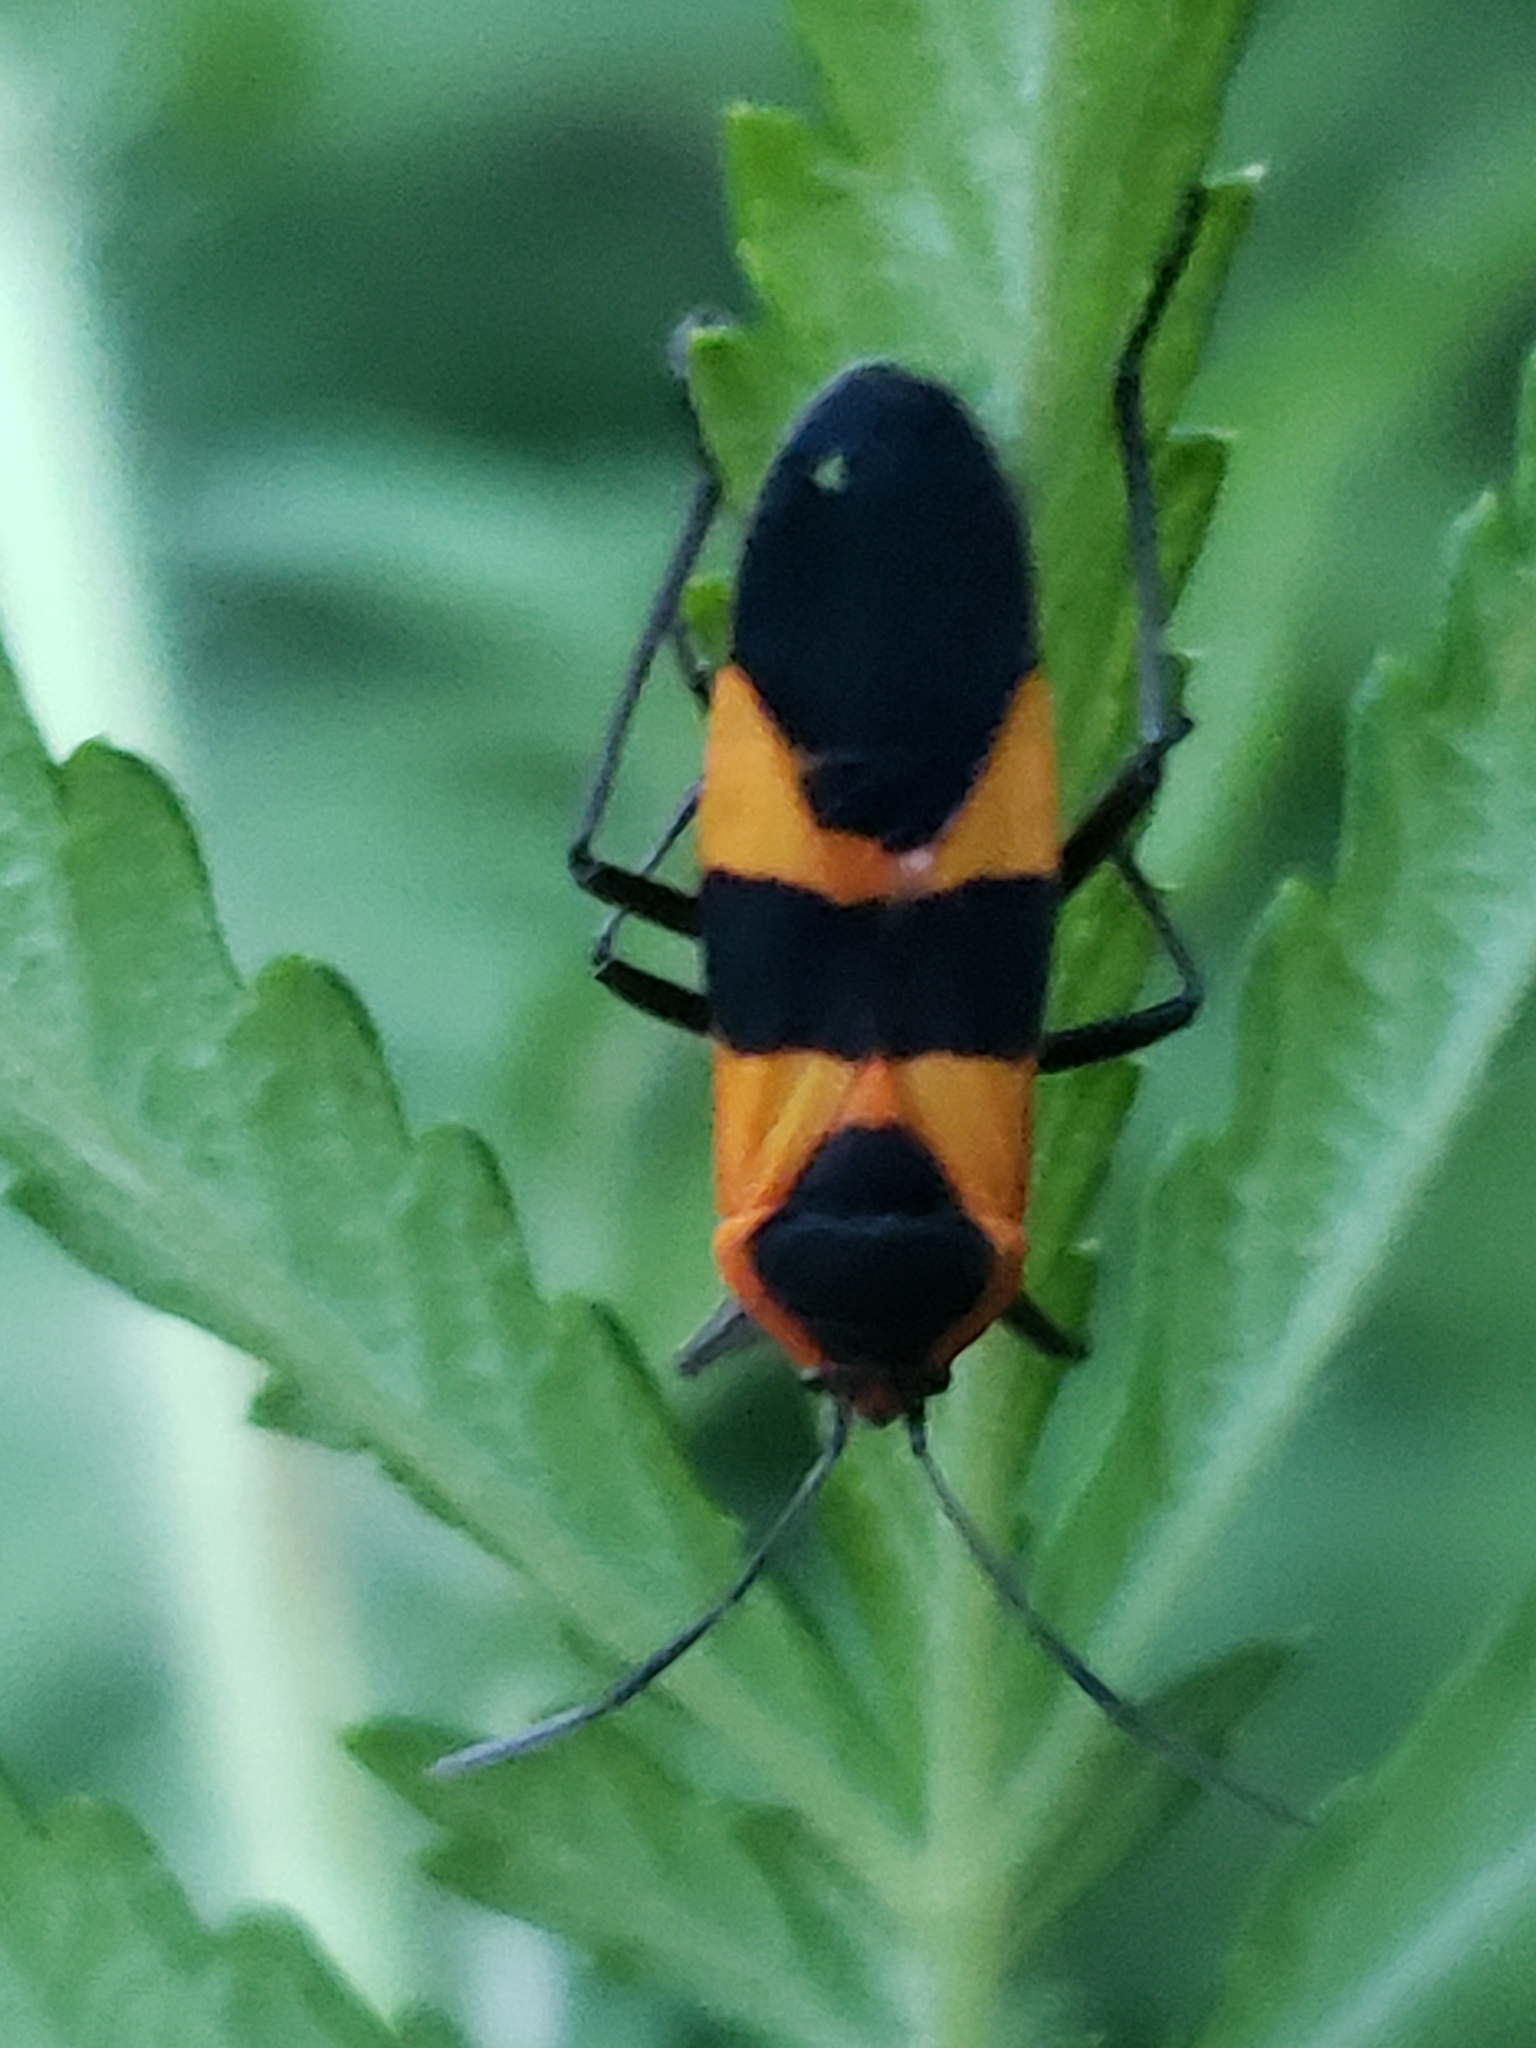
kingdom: Animalia
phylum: Arthropoda
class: Insecta
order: Hemiptera
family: Lygaeidae
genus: Oncopeltus
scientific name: Oncopeltus fasciatus
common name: Large milkweed bug
